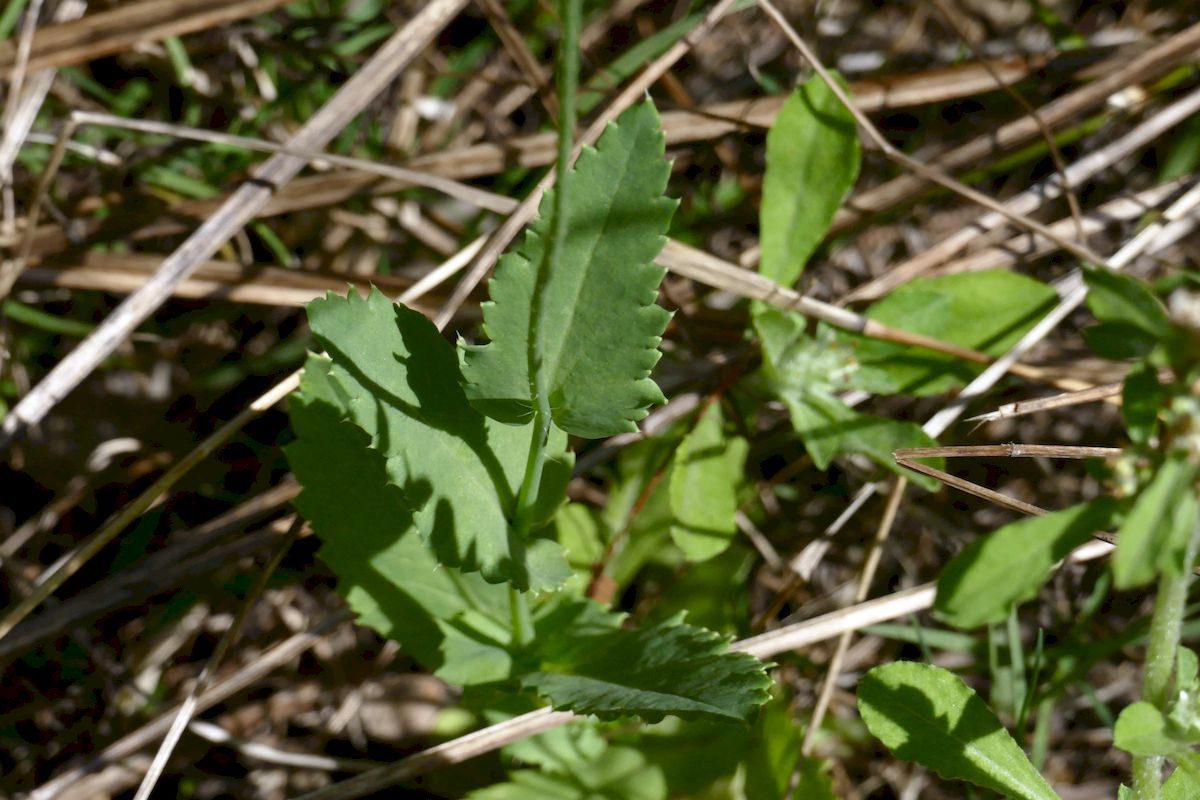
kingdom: Plantae
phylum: Tracheophyta
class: Magnoliopsida
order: Ranunculales
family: Papaveraceae
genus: Papaver
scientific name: Papaver somniferum
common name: Opium poppy
